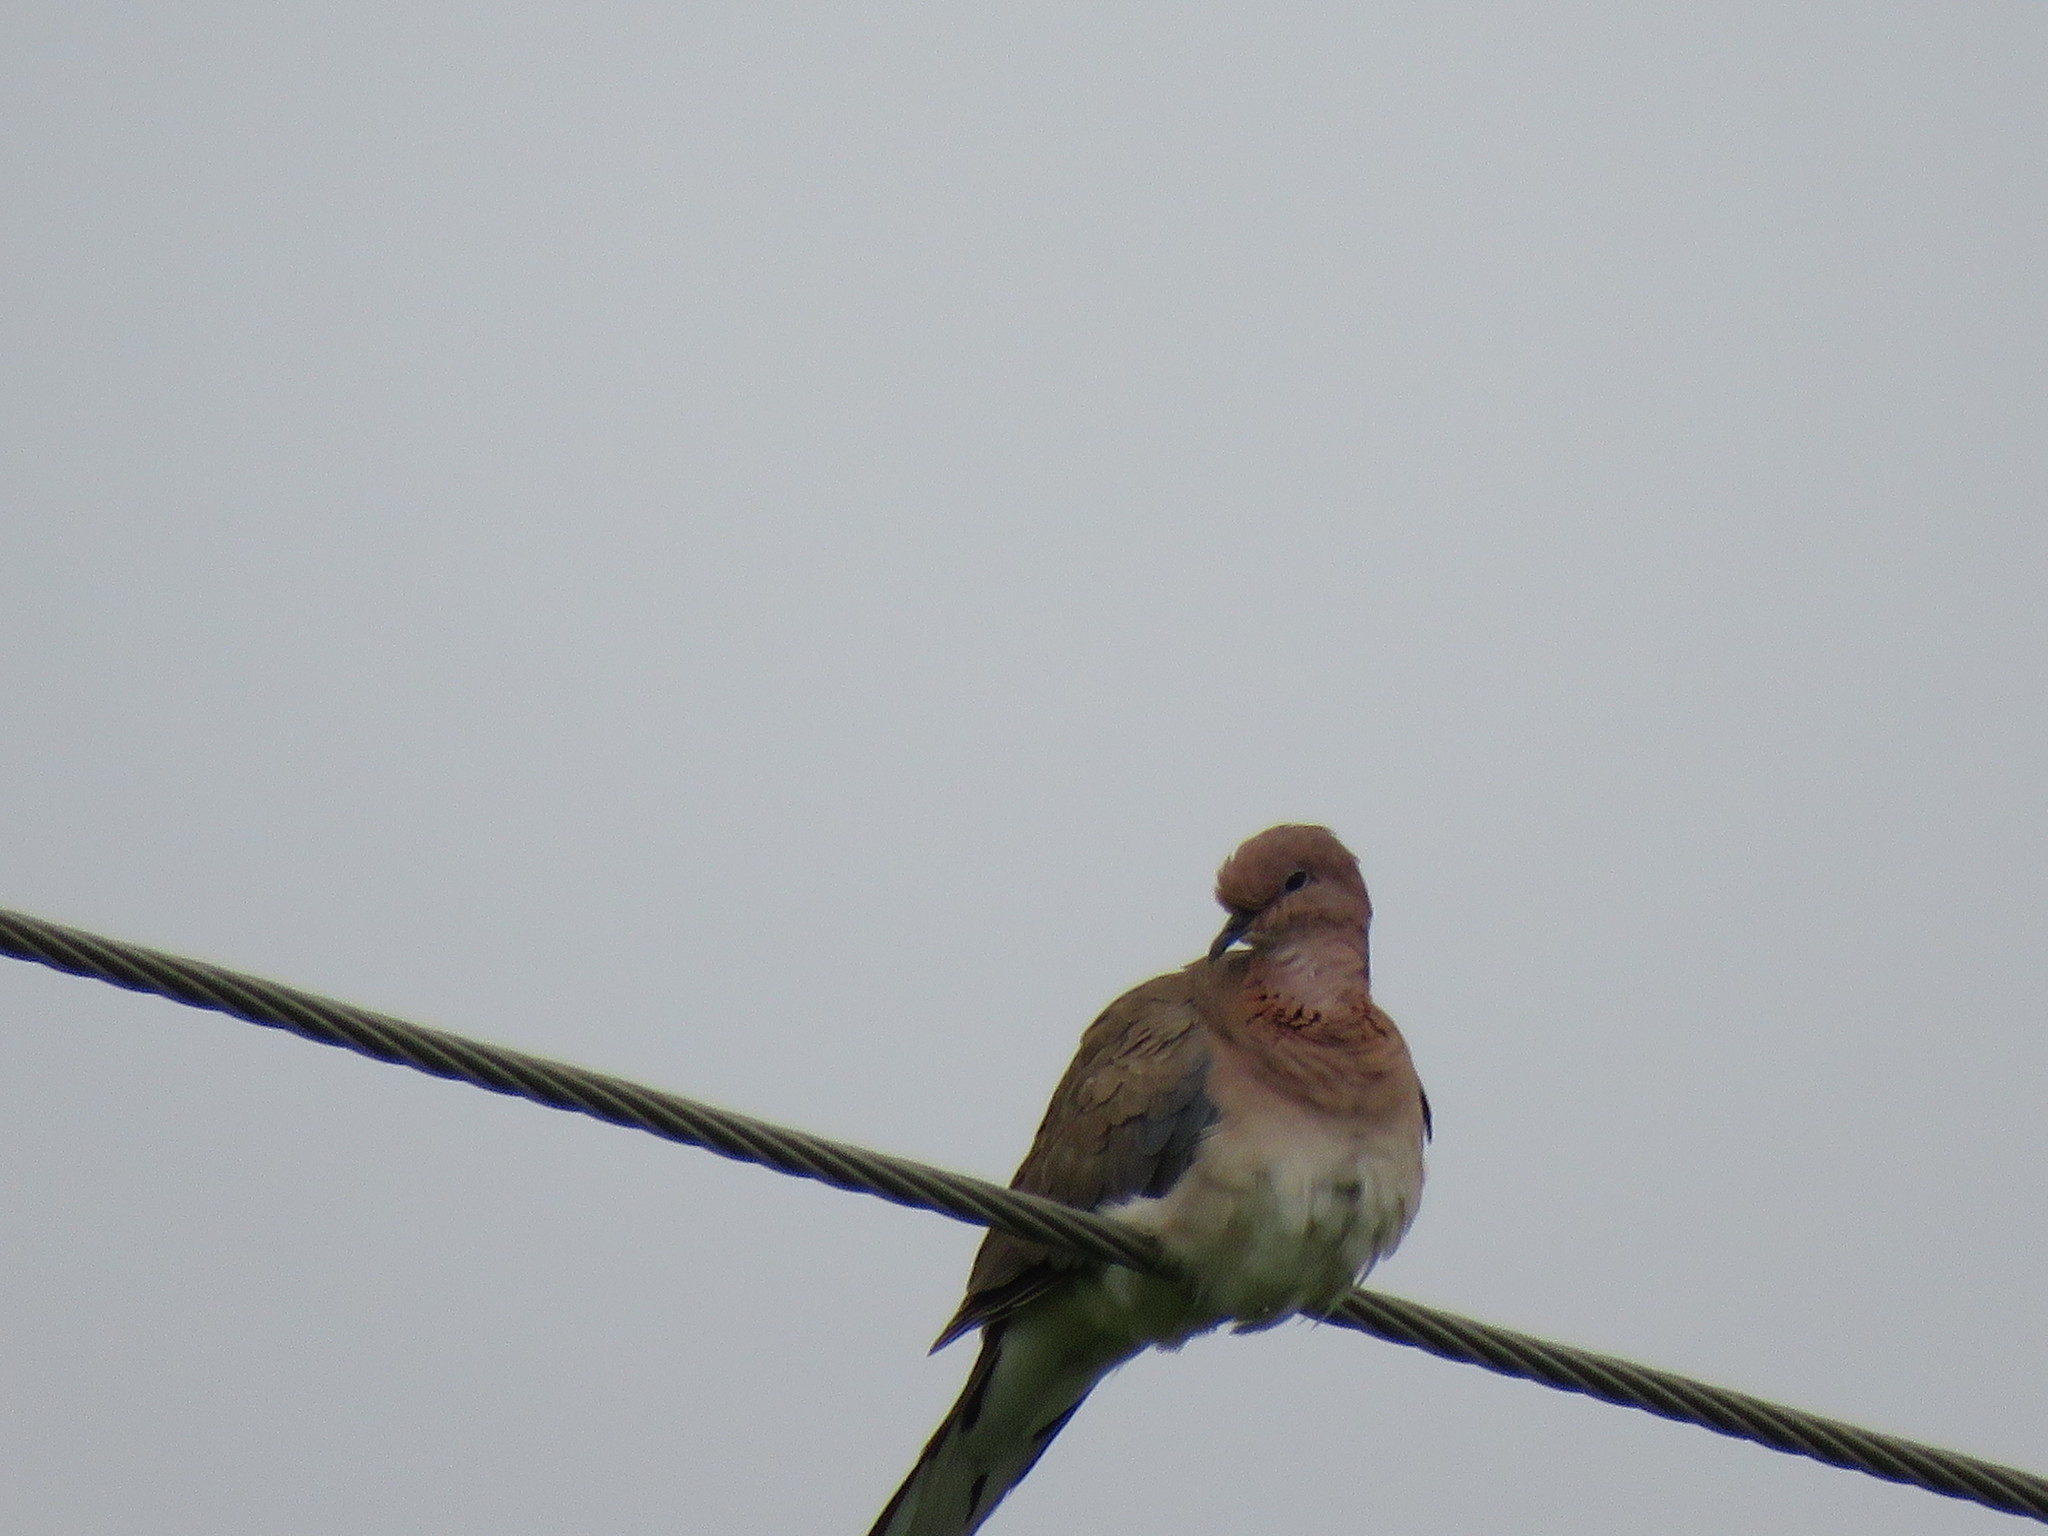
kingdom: Animalia
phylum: Chordata
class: Aves
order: Columbiformes
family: Columbidae
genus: Spilopelia
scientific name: Spilopelia senegalensis
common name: Laughing dove
